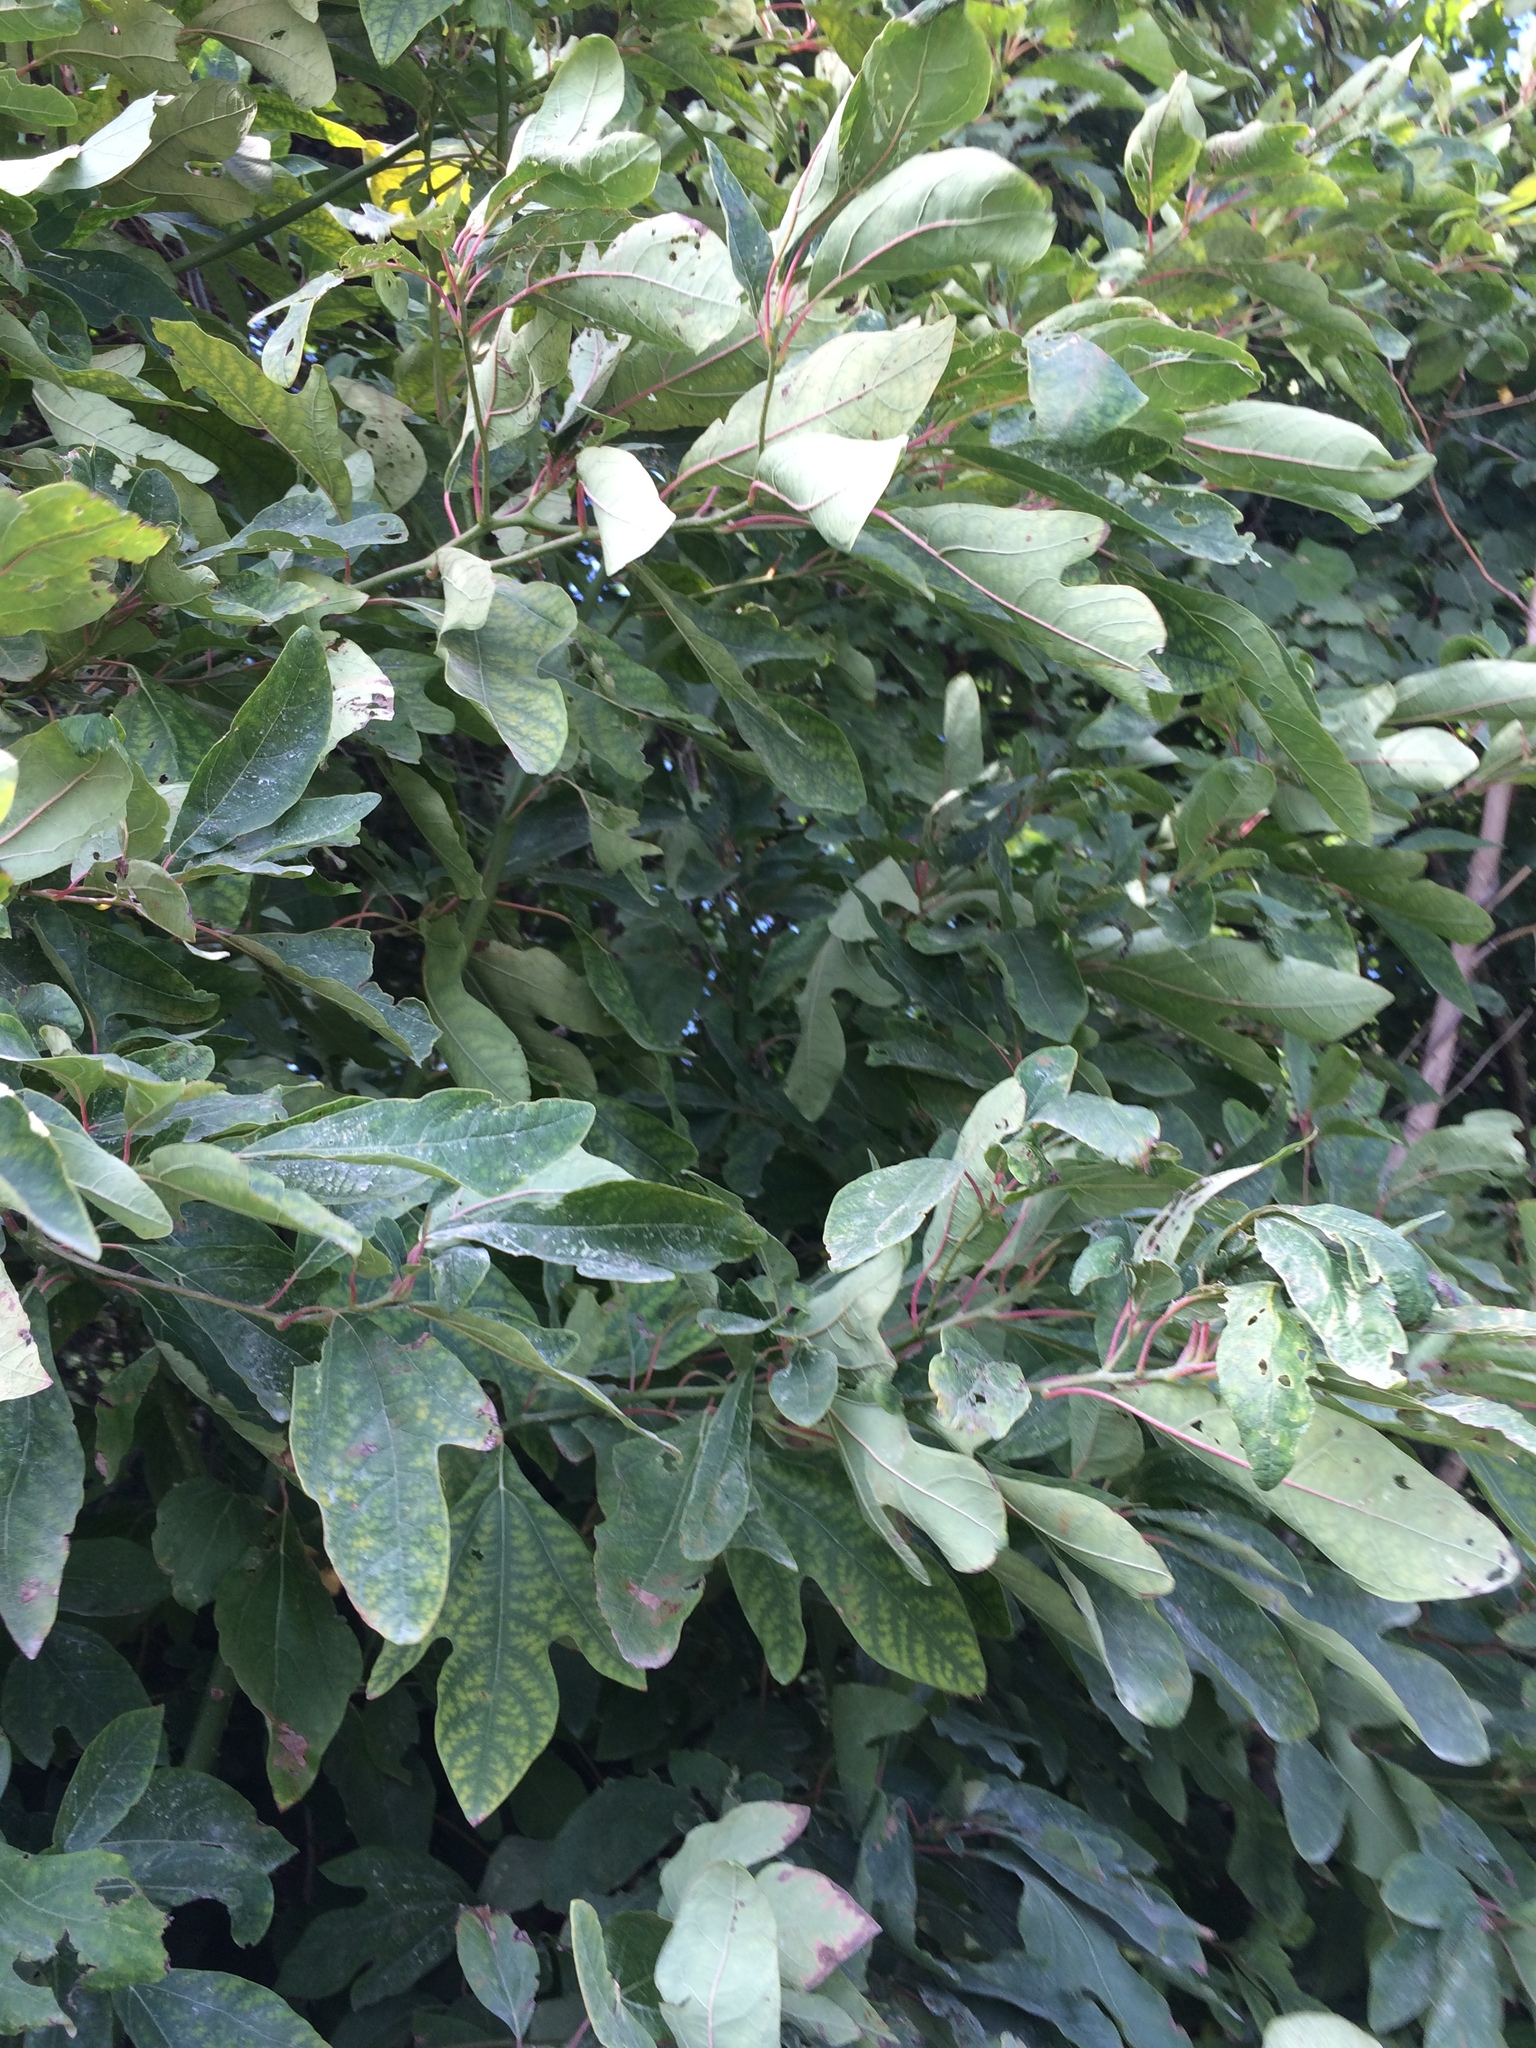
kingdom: Plantae
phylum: Tracheophyta
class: Magnoliopsida
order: Laurales
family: Lauraceae
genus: Sassafras
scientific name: Sassafras albidum
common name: Sassafras
